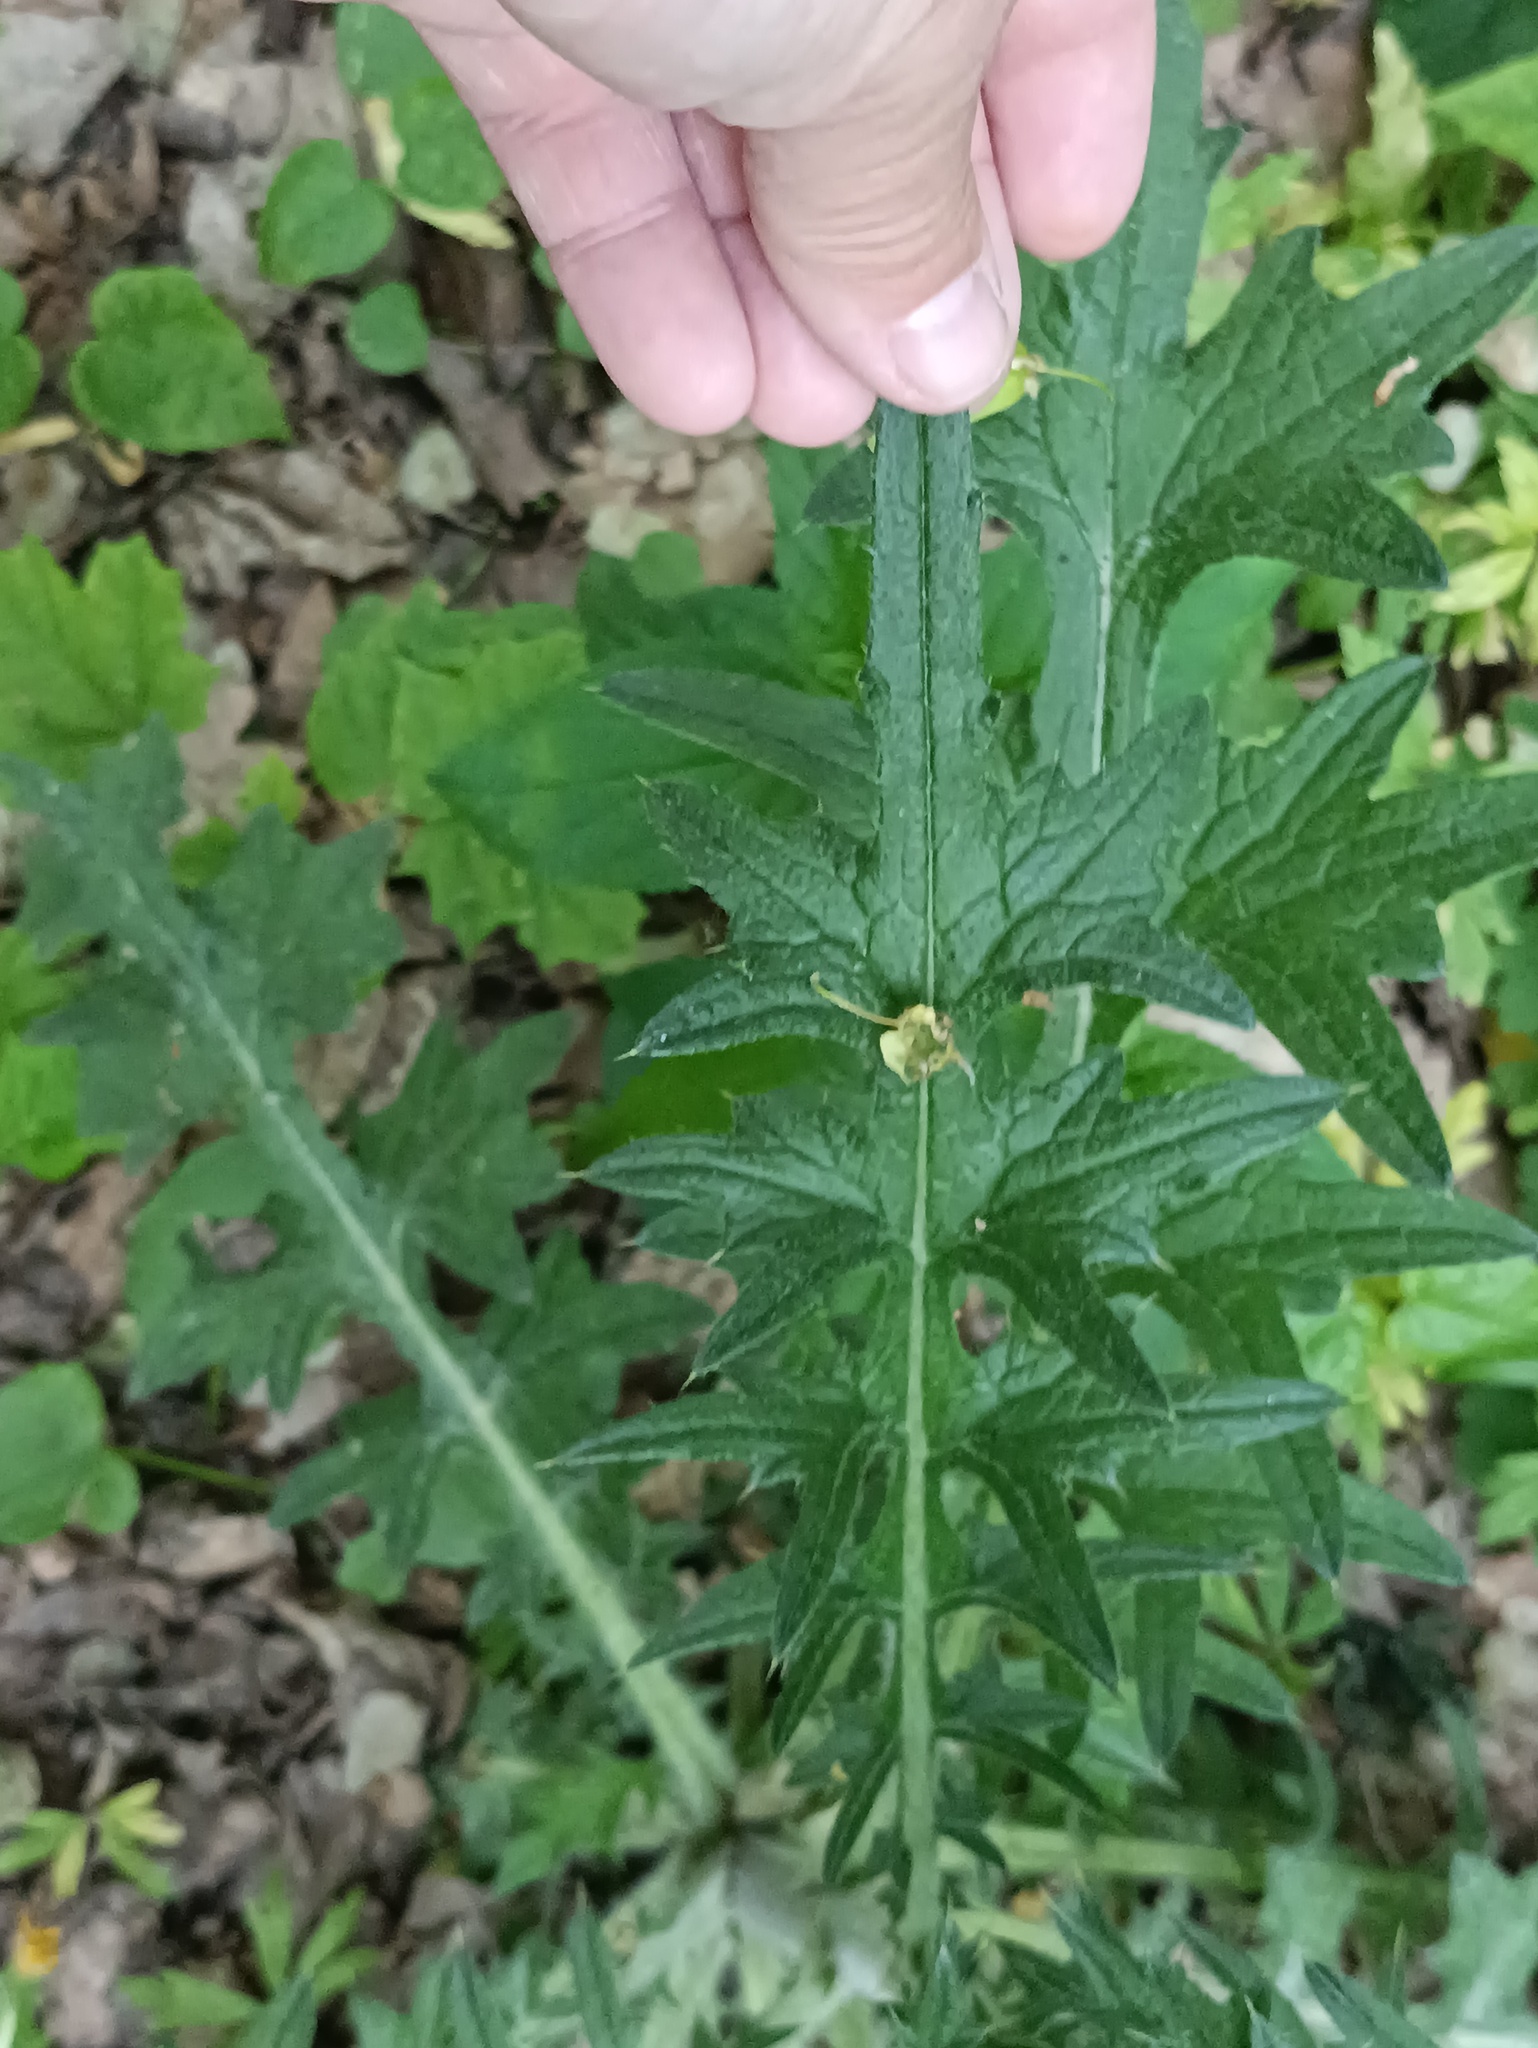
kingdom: Plantae
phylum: Tracheophyta
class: Magnoliopsida
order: Asterales
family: Asteraceae
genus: Cirsium
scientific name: Cirsium vulgare
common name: Bull thistle
